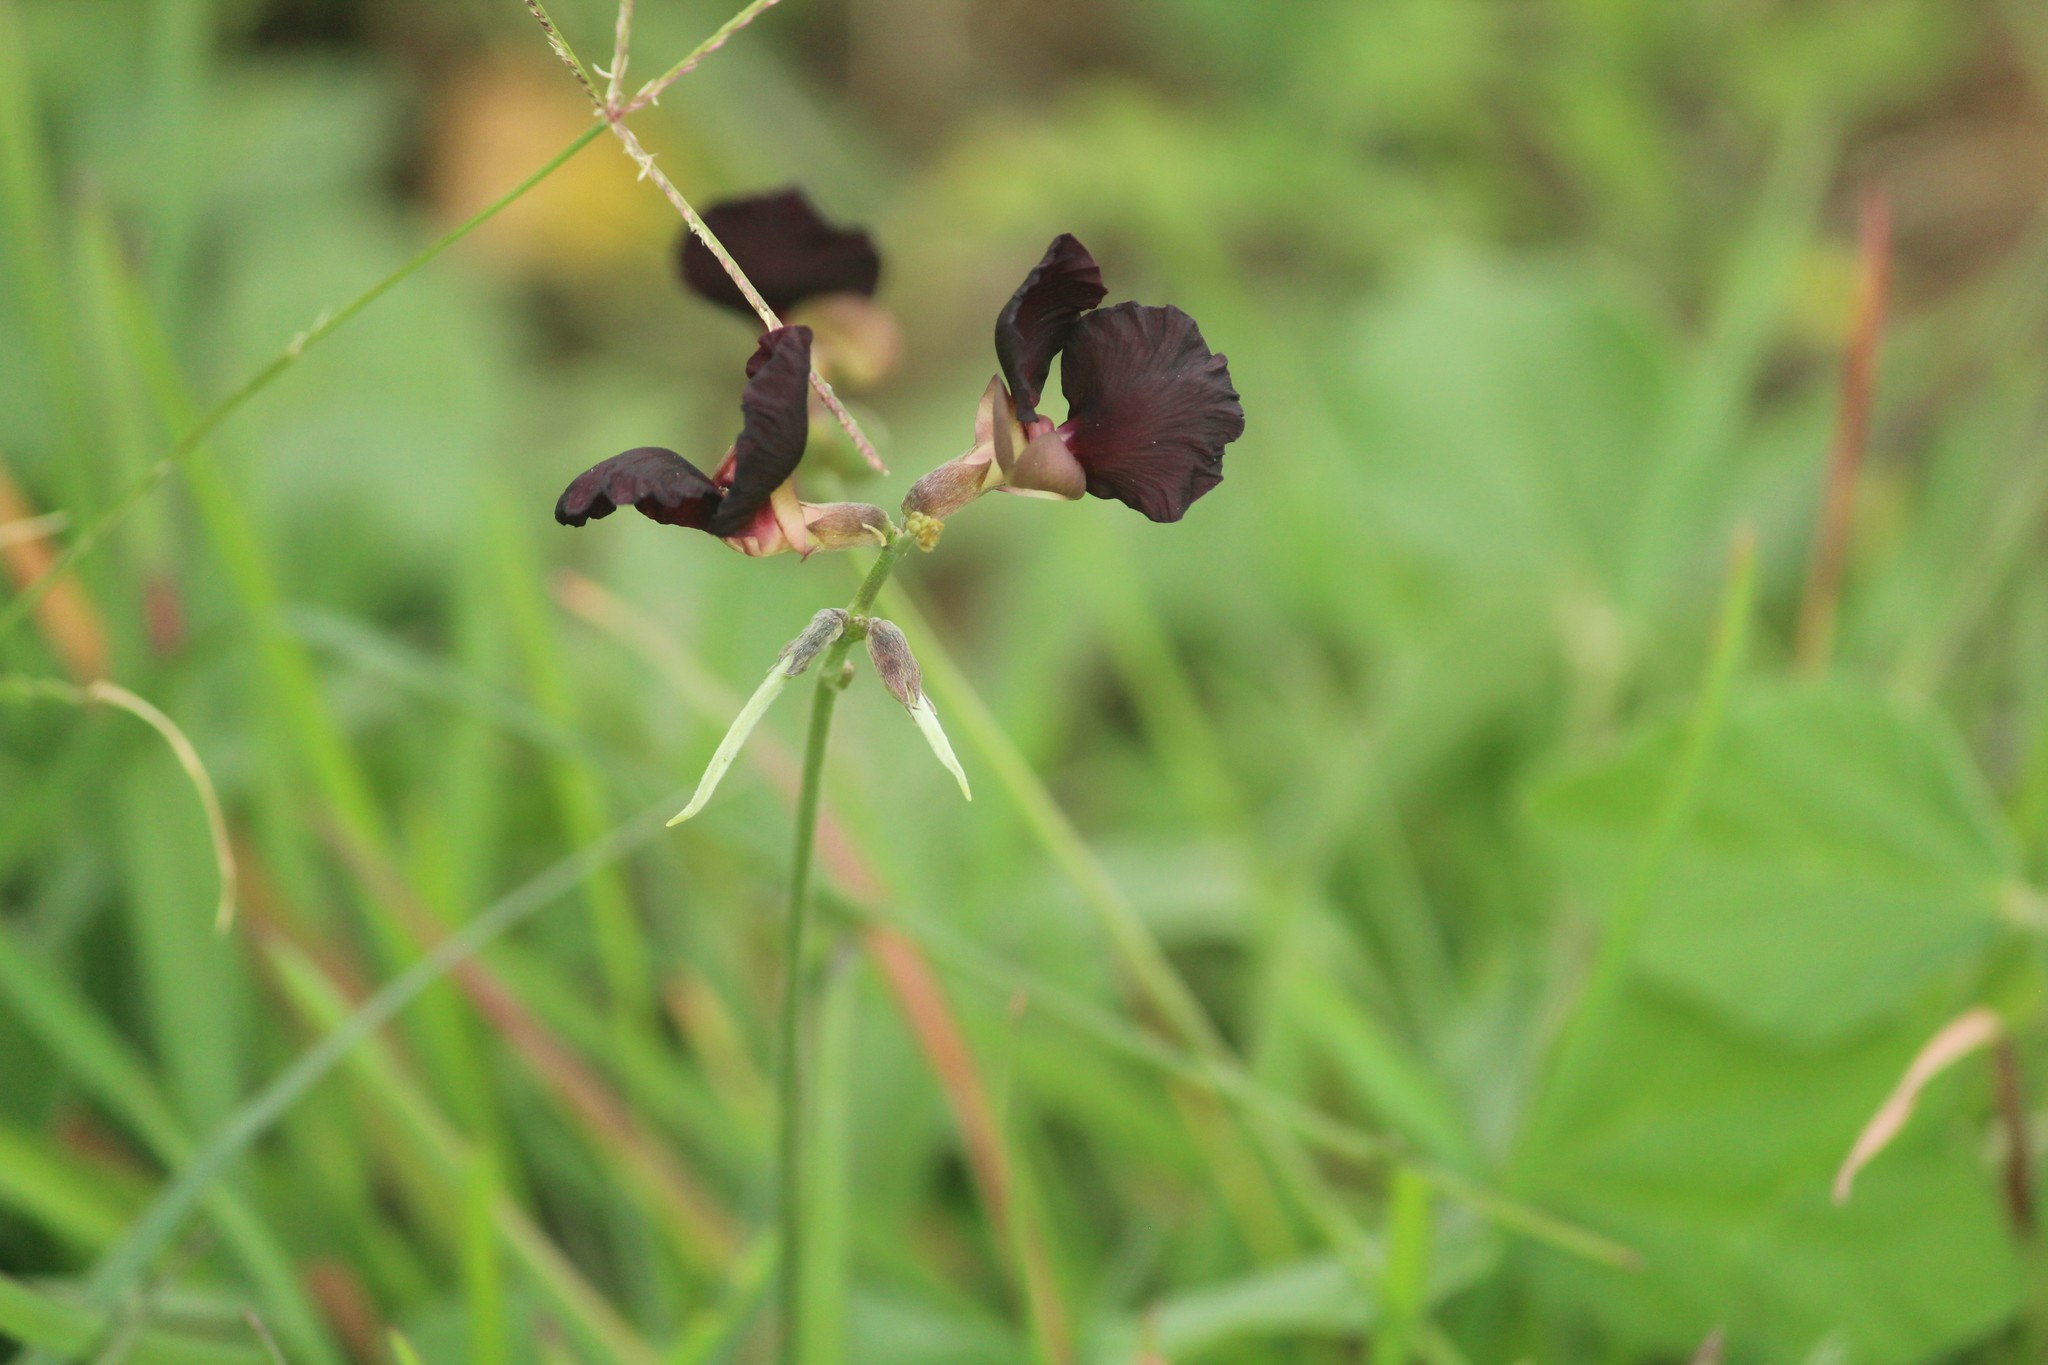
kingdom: Plantae
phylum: Tracheophyta
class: Magnoliopsida
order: Fabales
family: Fabaceae
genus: Macroptilium
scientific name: Macroptilium atropurpureum
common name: Purple bushbean
